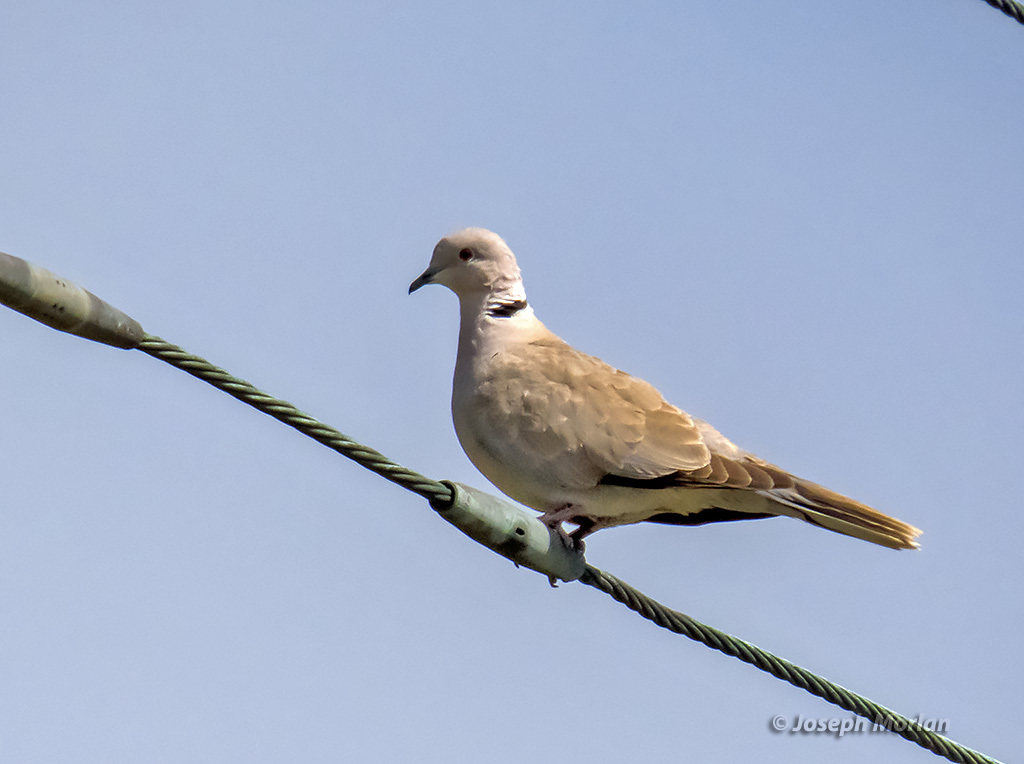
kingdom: Animalia
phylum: Chordata
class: Aves
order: Columbiformes
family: Columbidae
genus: Streptopelia
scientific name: Streptopelia decaocto
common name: Eurasian collared dove
